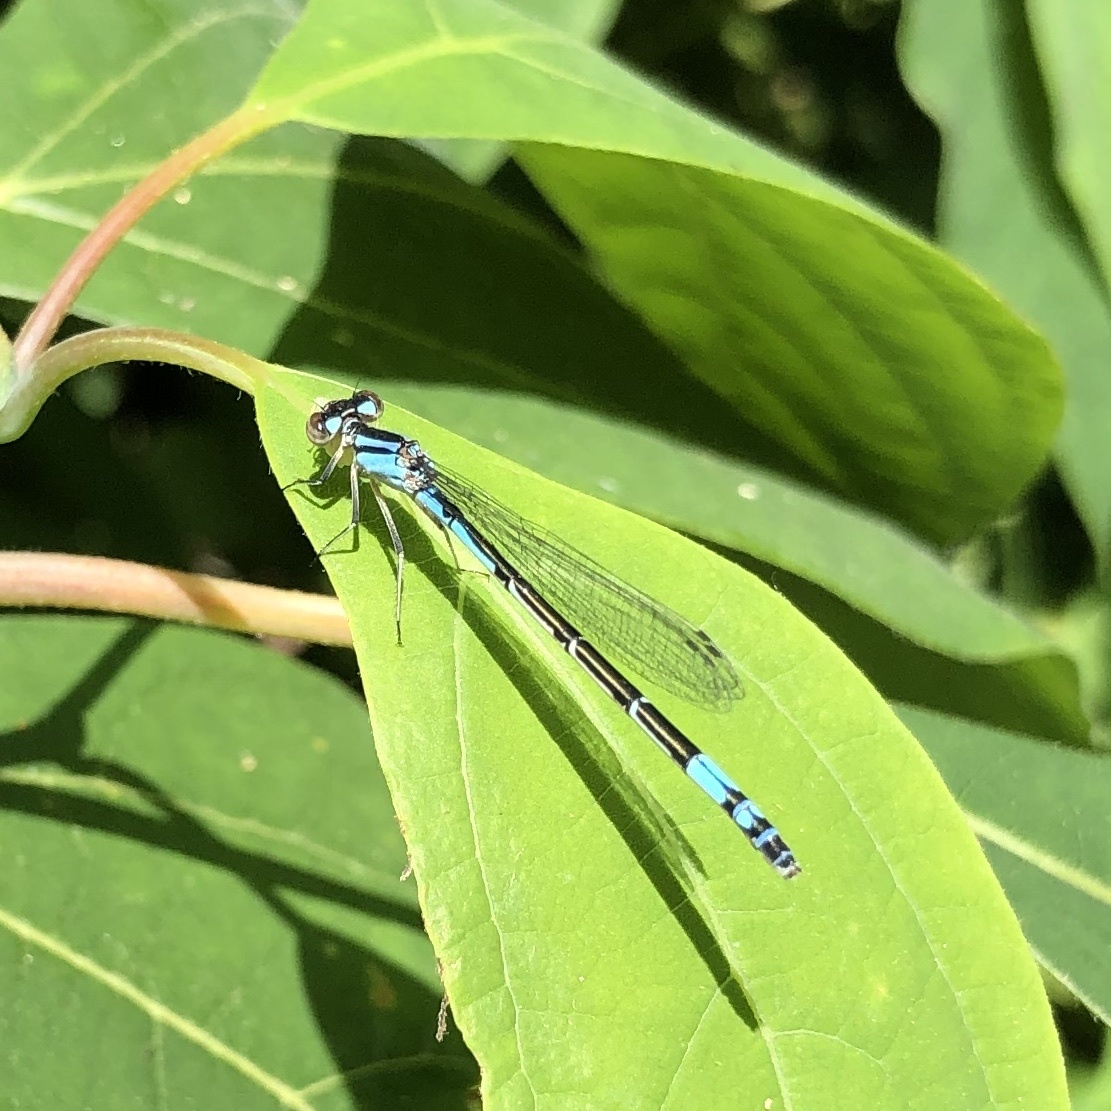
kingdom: Animalia
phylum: Arthropoda
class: Insecta
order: Odonata
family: Coenagrionidae
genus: Enallagma
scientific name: Enallagma aspersum
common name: Azure bluet
